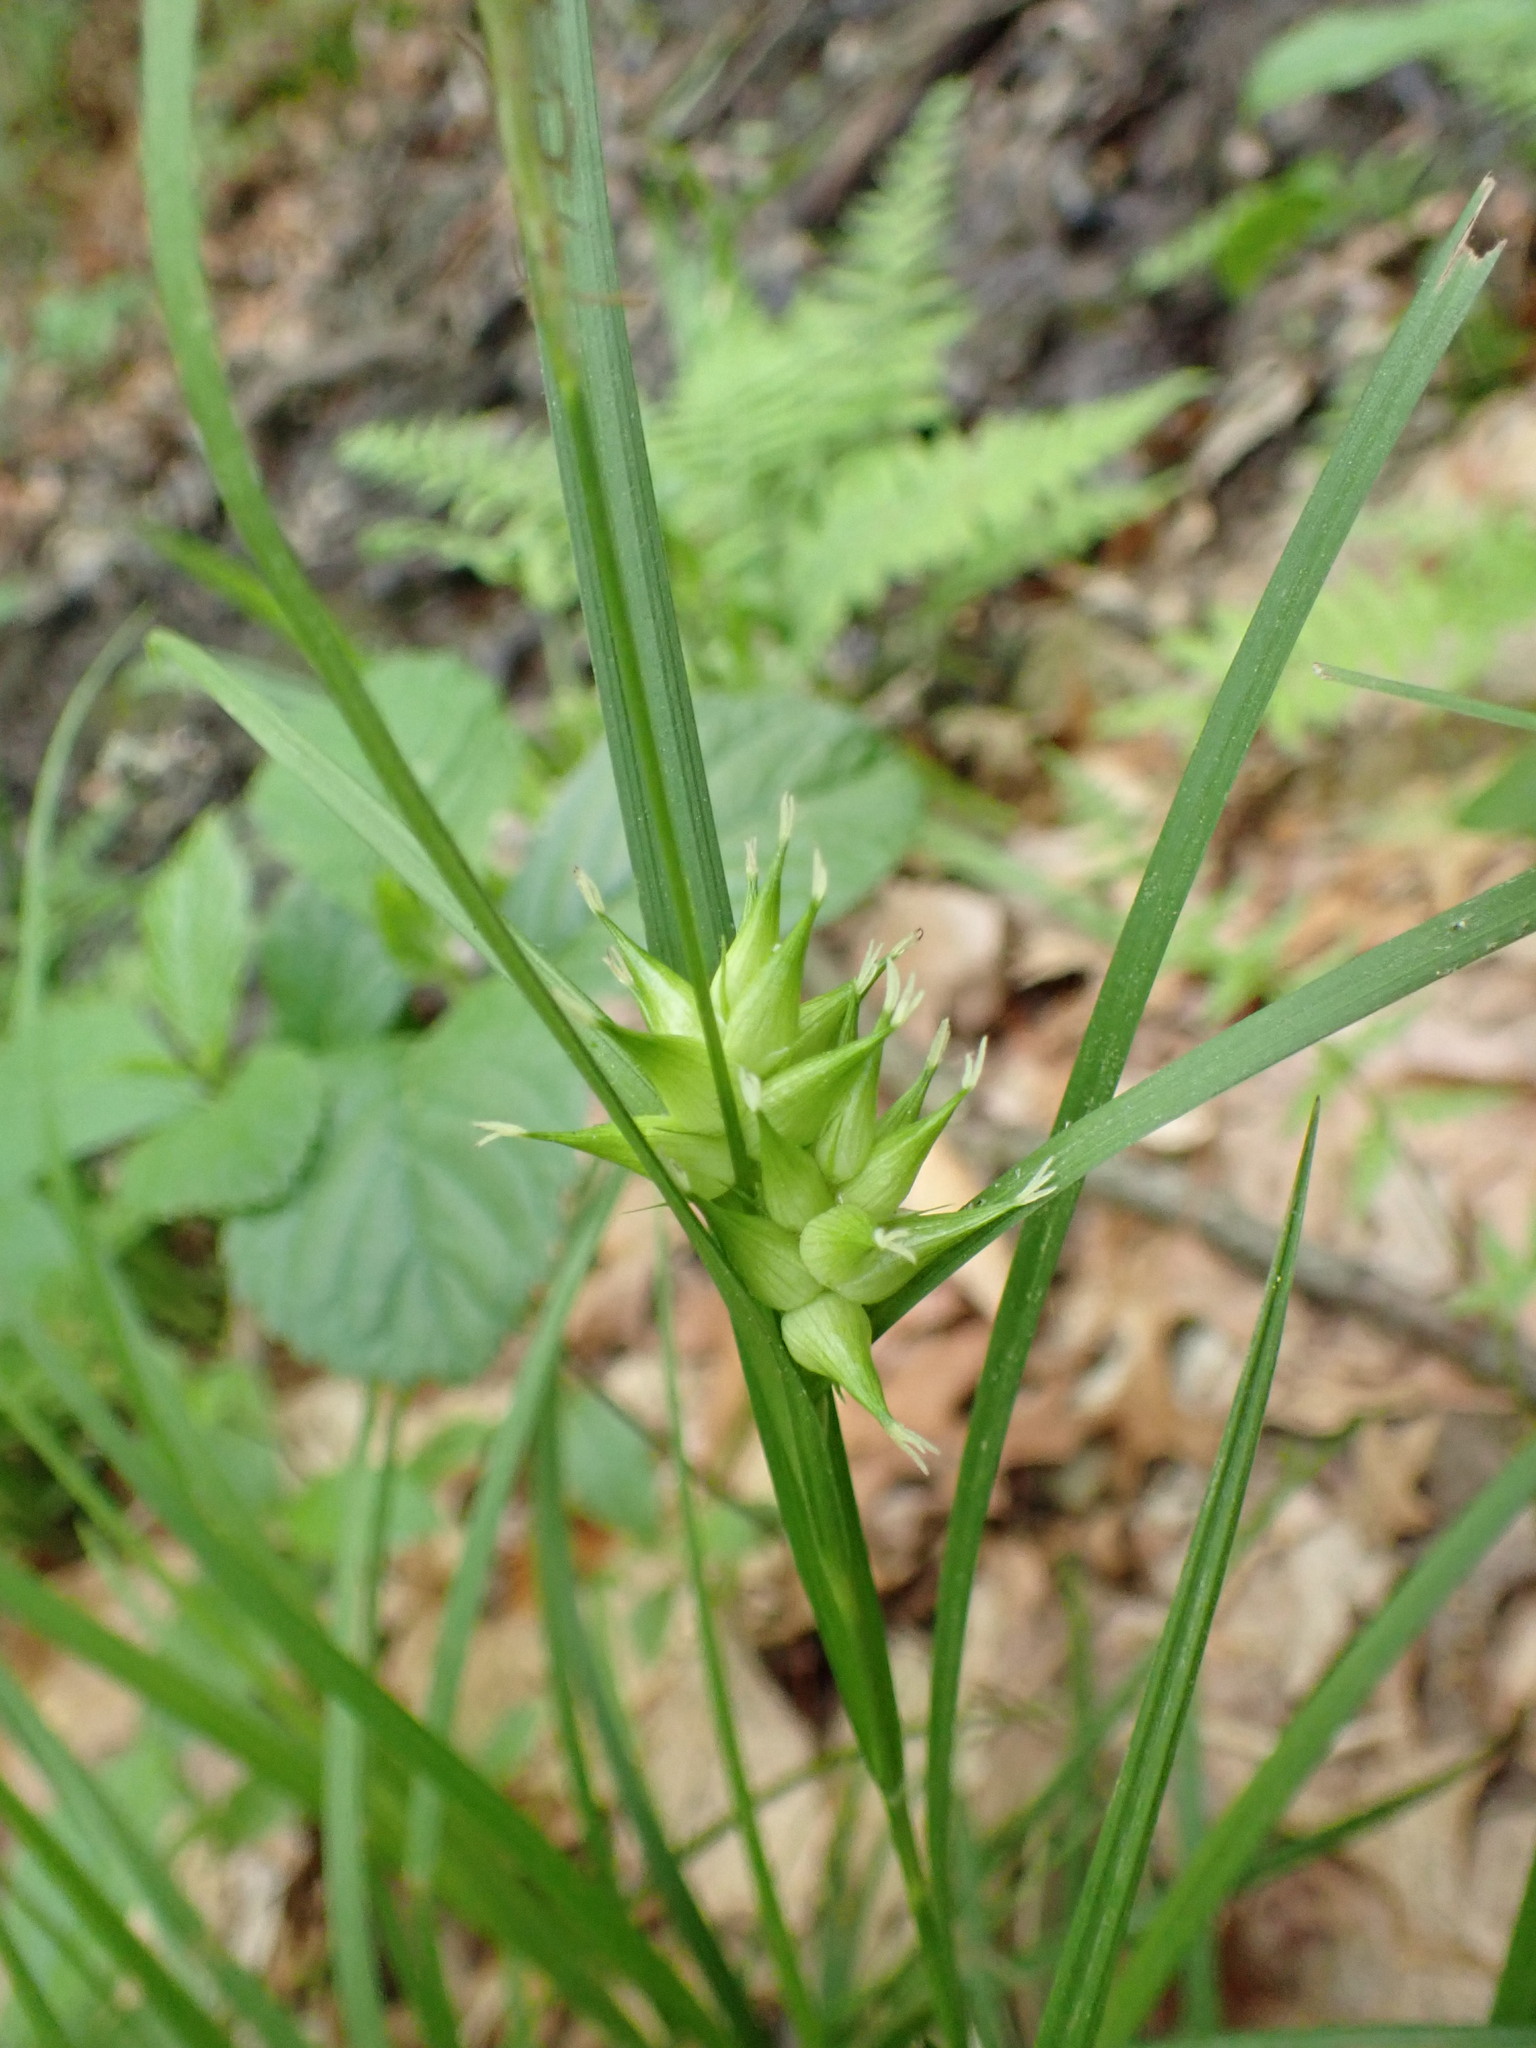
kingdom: Plantae
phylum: Tracheophyta
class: Liliopsida
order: Poales
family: Cyperaceae
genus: Carex
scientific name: Carex intumescens
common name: Greater bladder sedge
